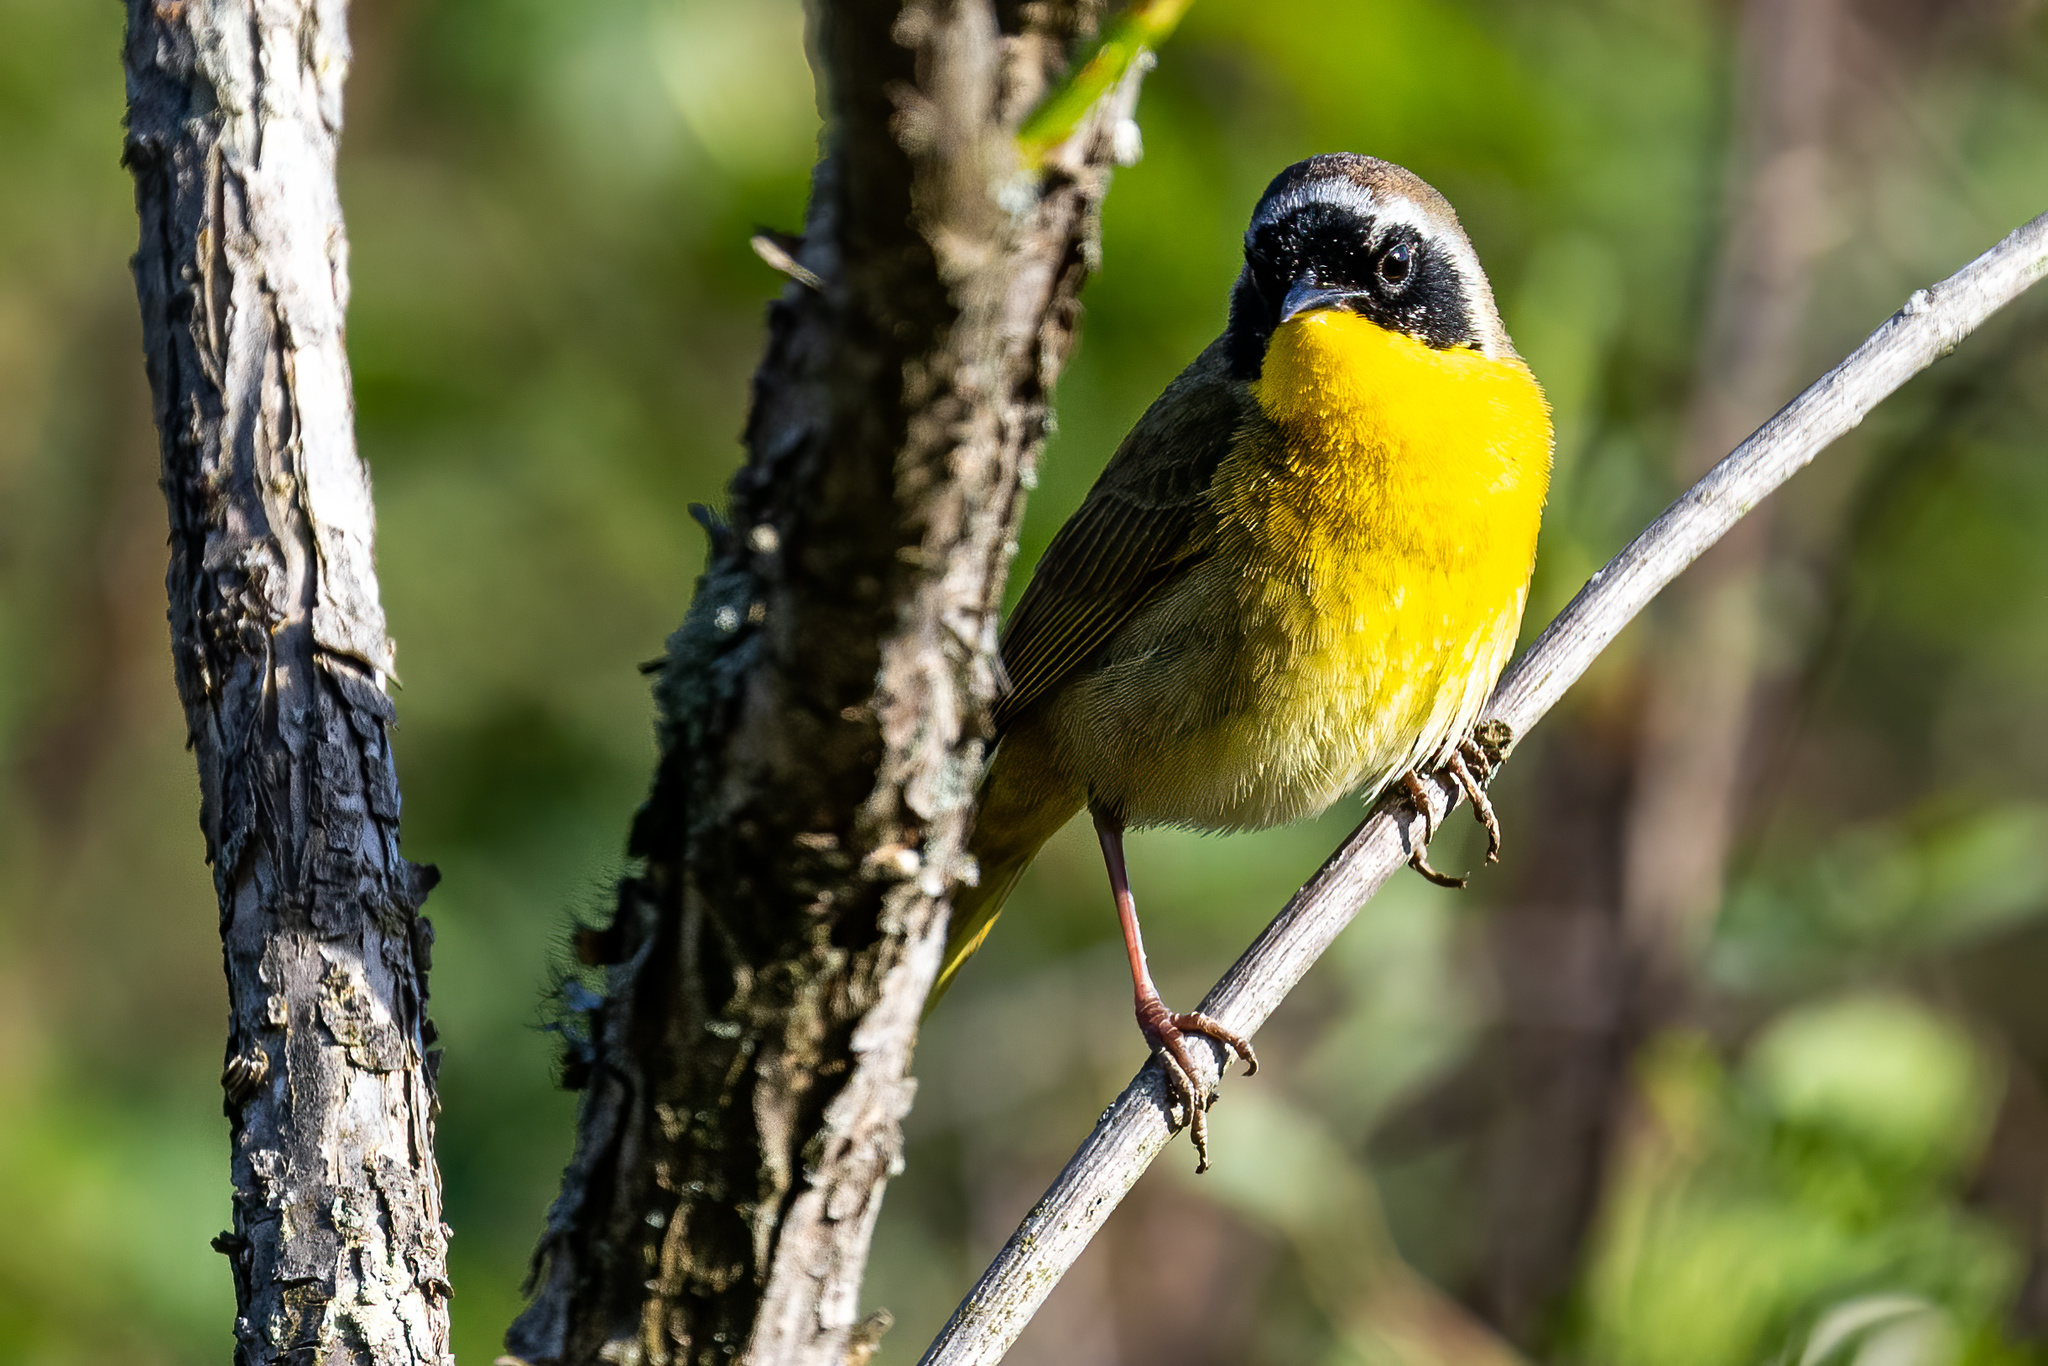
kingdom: Animalia
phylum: Chordata
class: Aves
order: Passeriformes
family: Parulidae
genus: Geothlypis
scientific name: Geothlypis trichas
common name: Common yellowthroat
